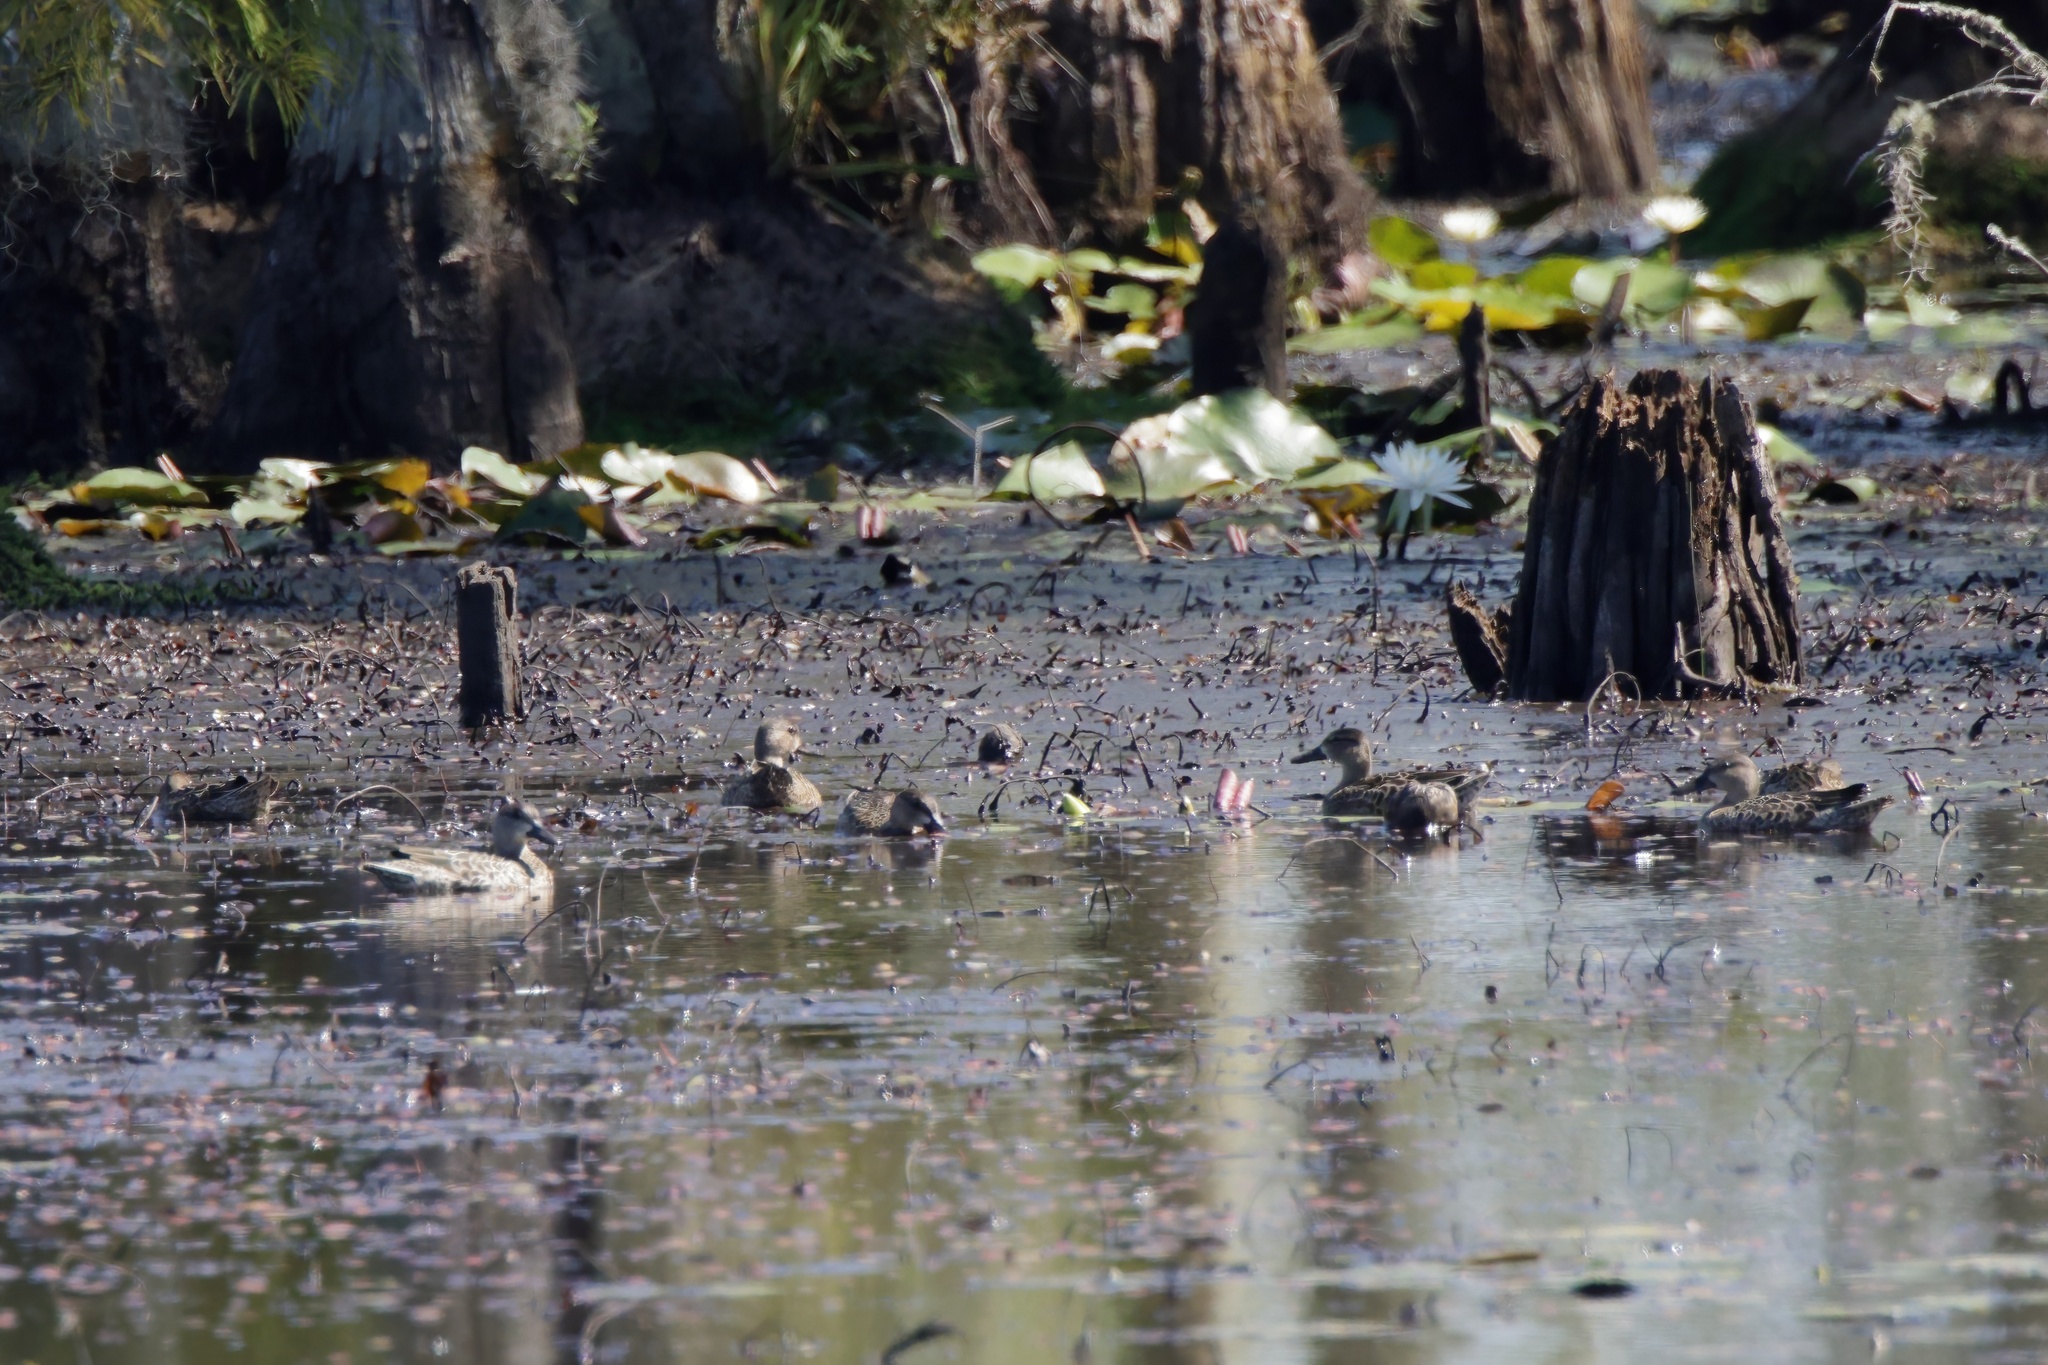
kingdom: Animalia
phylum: Chordata
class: Aves
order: Anseriformes
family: Anatidae
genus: Spatula
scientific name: Spatula discors
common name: Blue-winged teal
